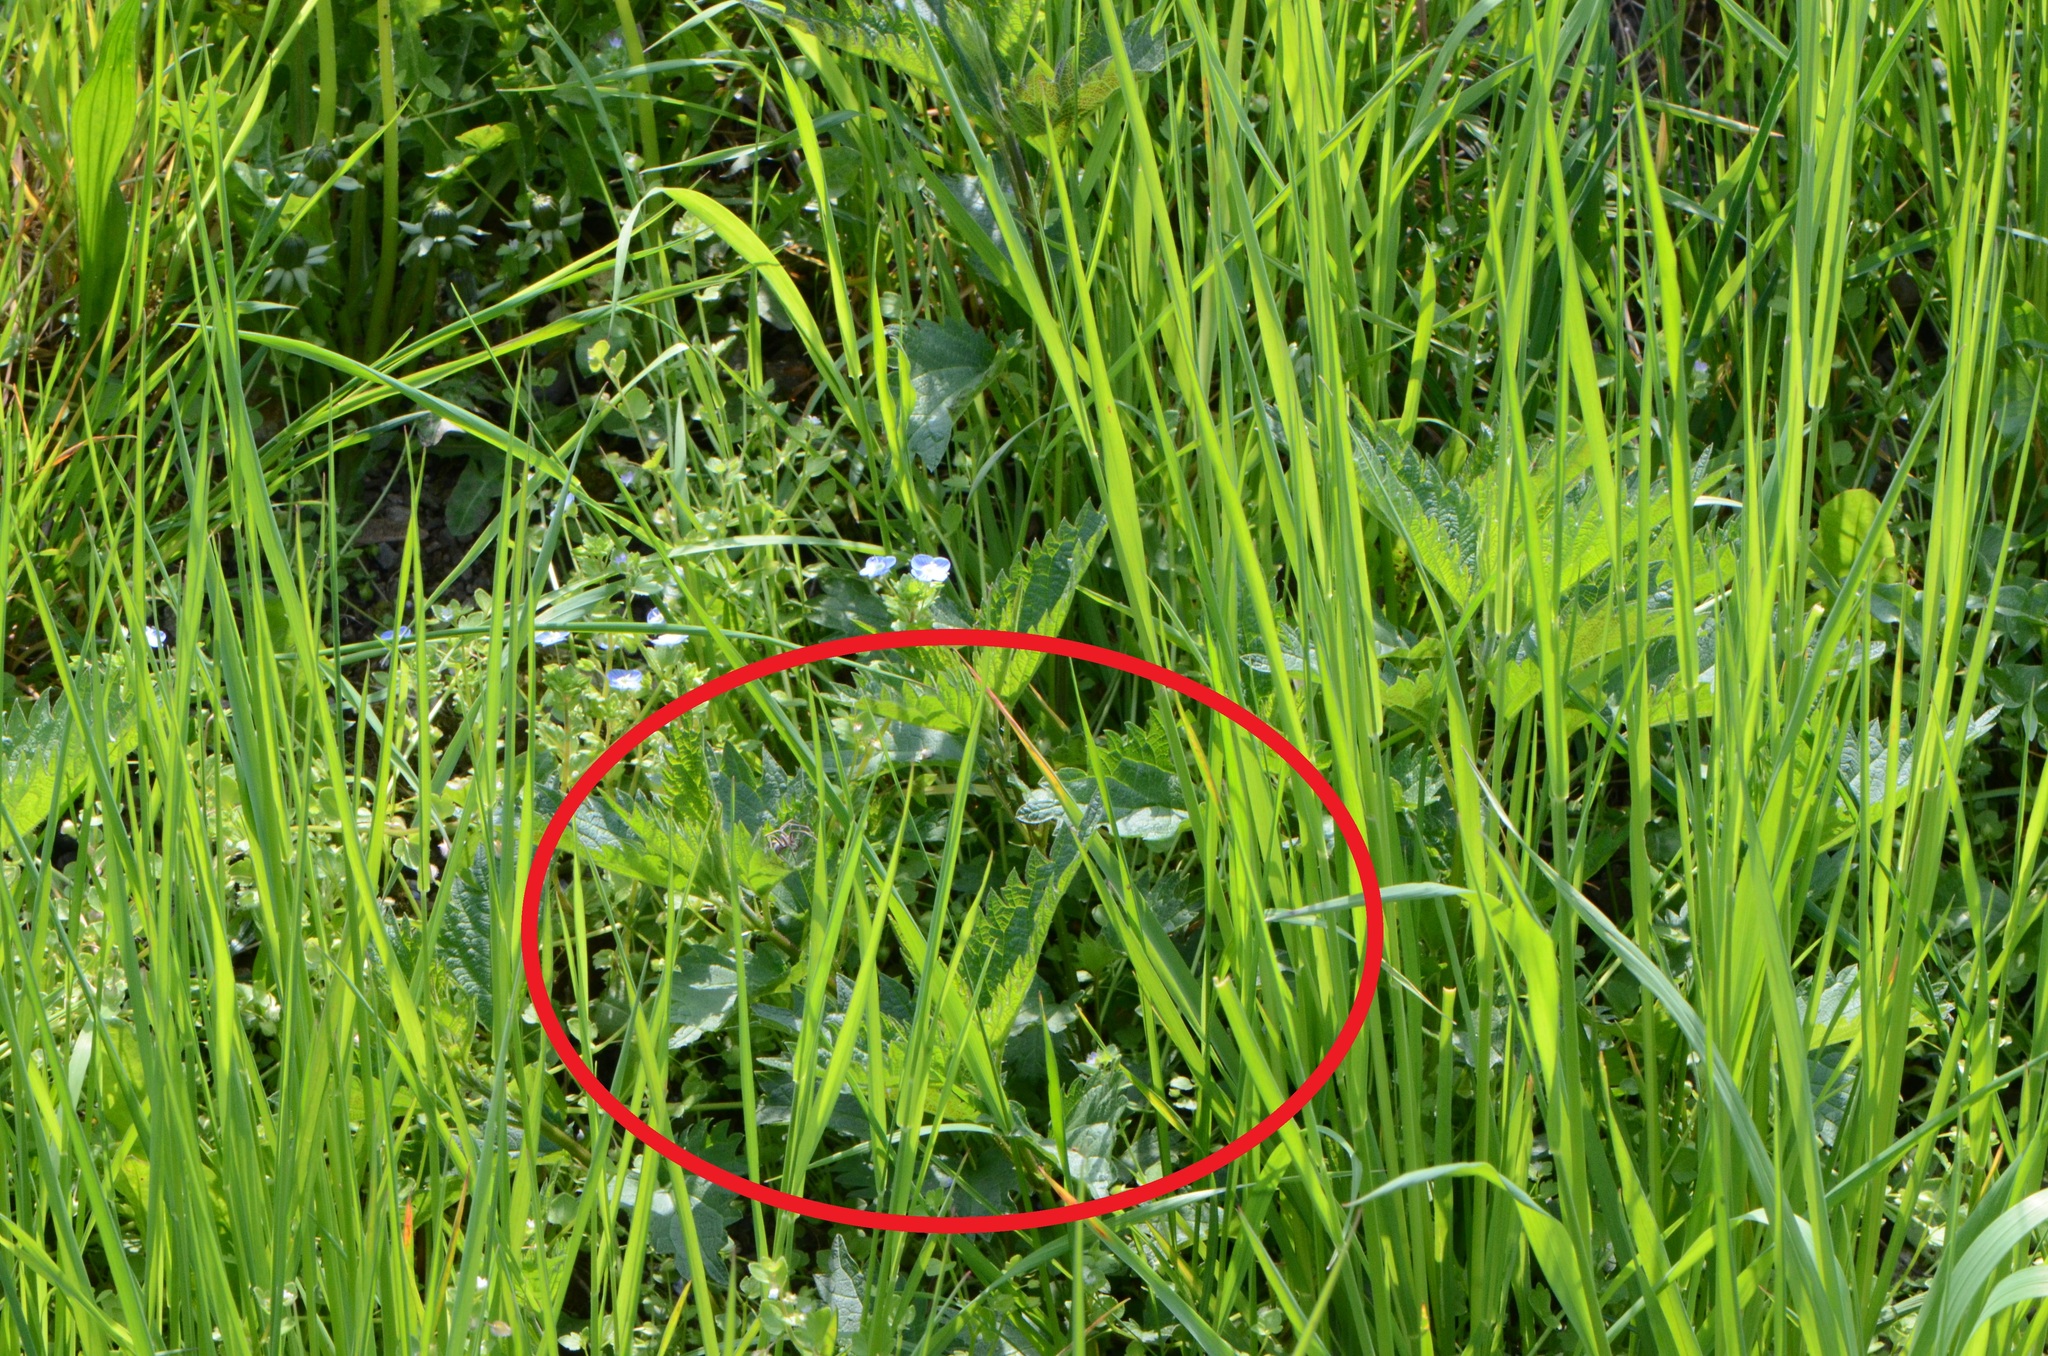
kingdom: Plantae
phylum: Tracheophyta
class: Magnoliopsida
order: Rosales
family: Urticaceae
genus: Urtica
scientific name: Urtica dioica
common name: Common nettle
